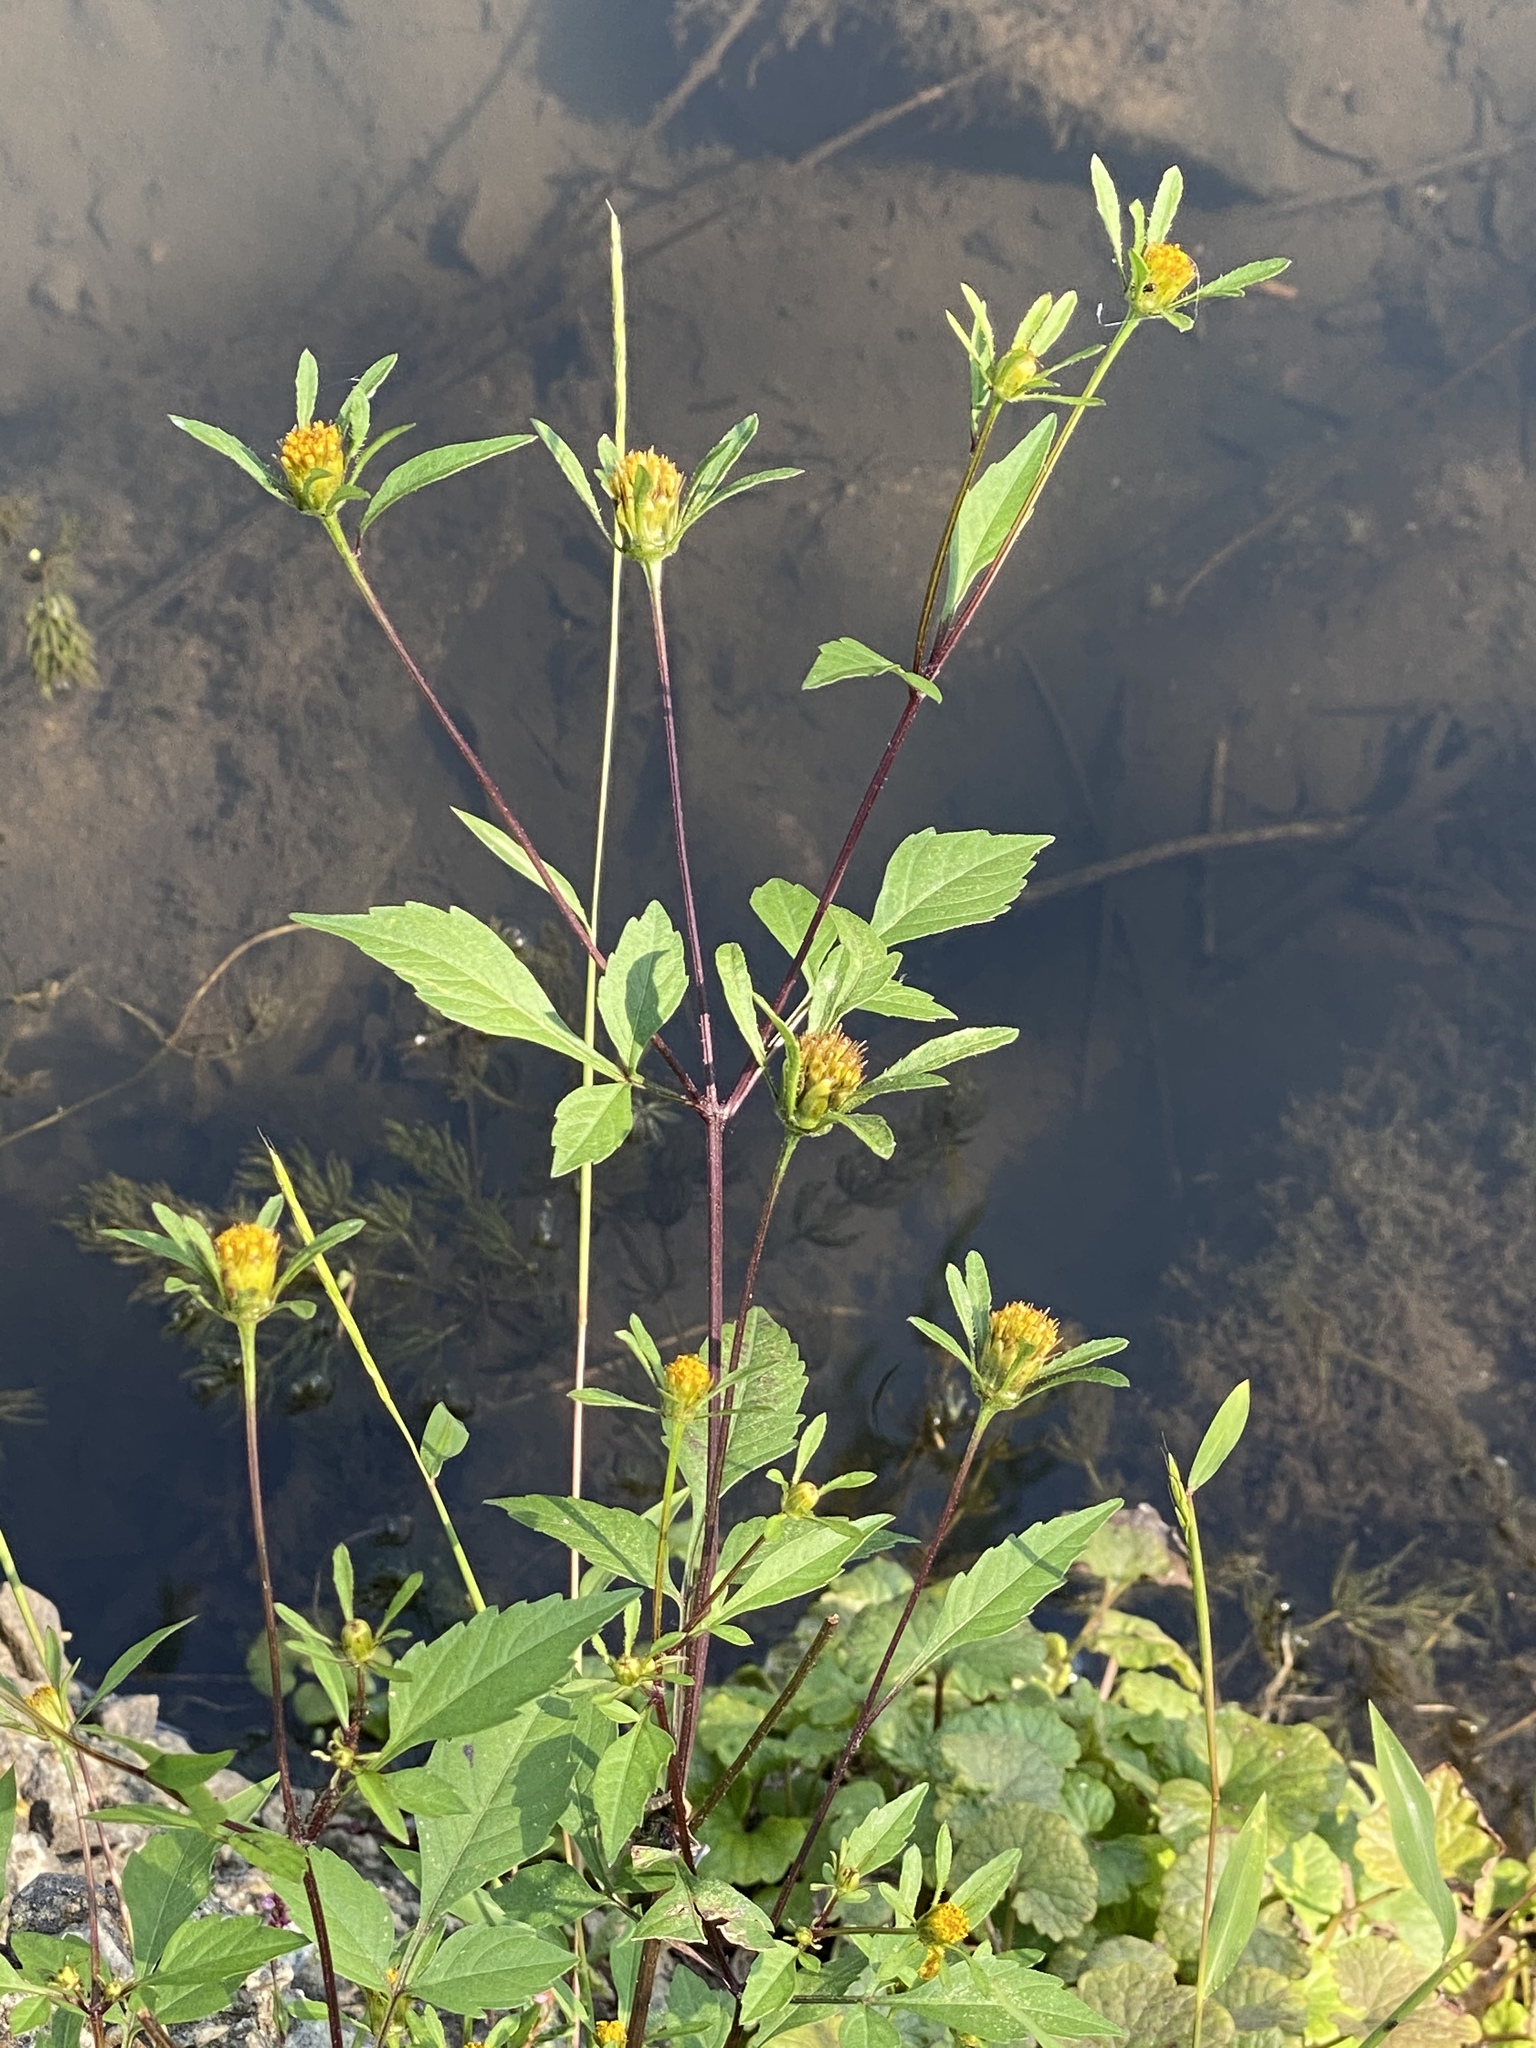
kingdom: Plantae
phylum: Tracheophyta
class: Magnoliopsida
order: Asterales
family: Asteraceae
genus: Bidens
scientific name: Bidens frondosa
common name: Beggarticks
